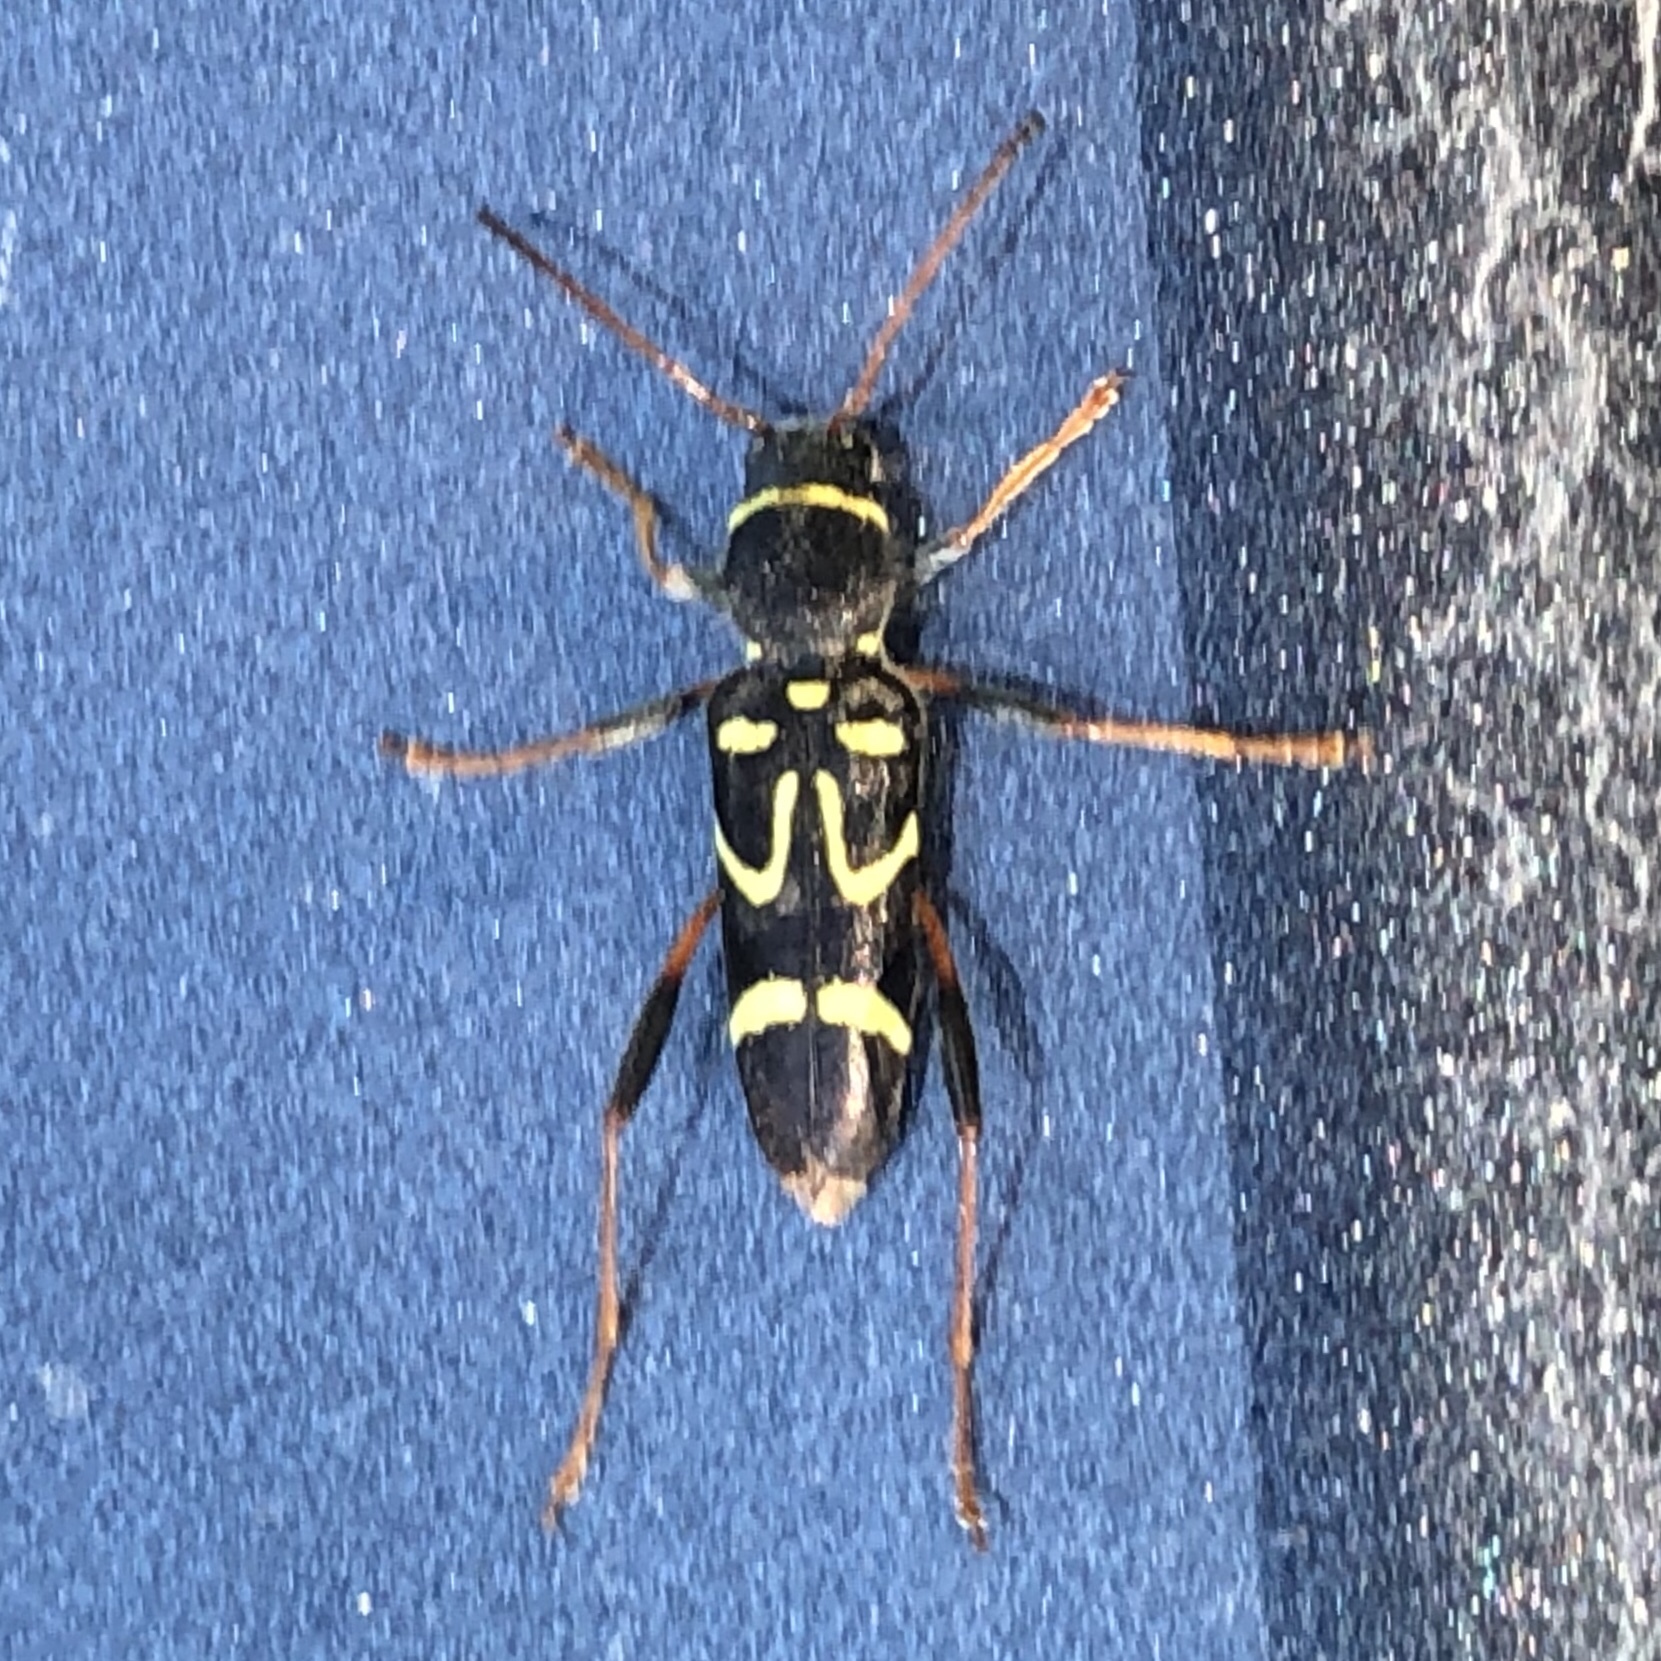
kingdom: Animalia
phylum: Arthropoda
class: Insecta
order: Coleoptera
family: Cerambycidae
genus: Clytus
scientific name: Clytus ruricola
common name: Round-necked longhorn beetle
